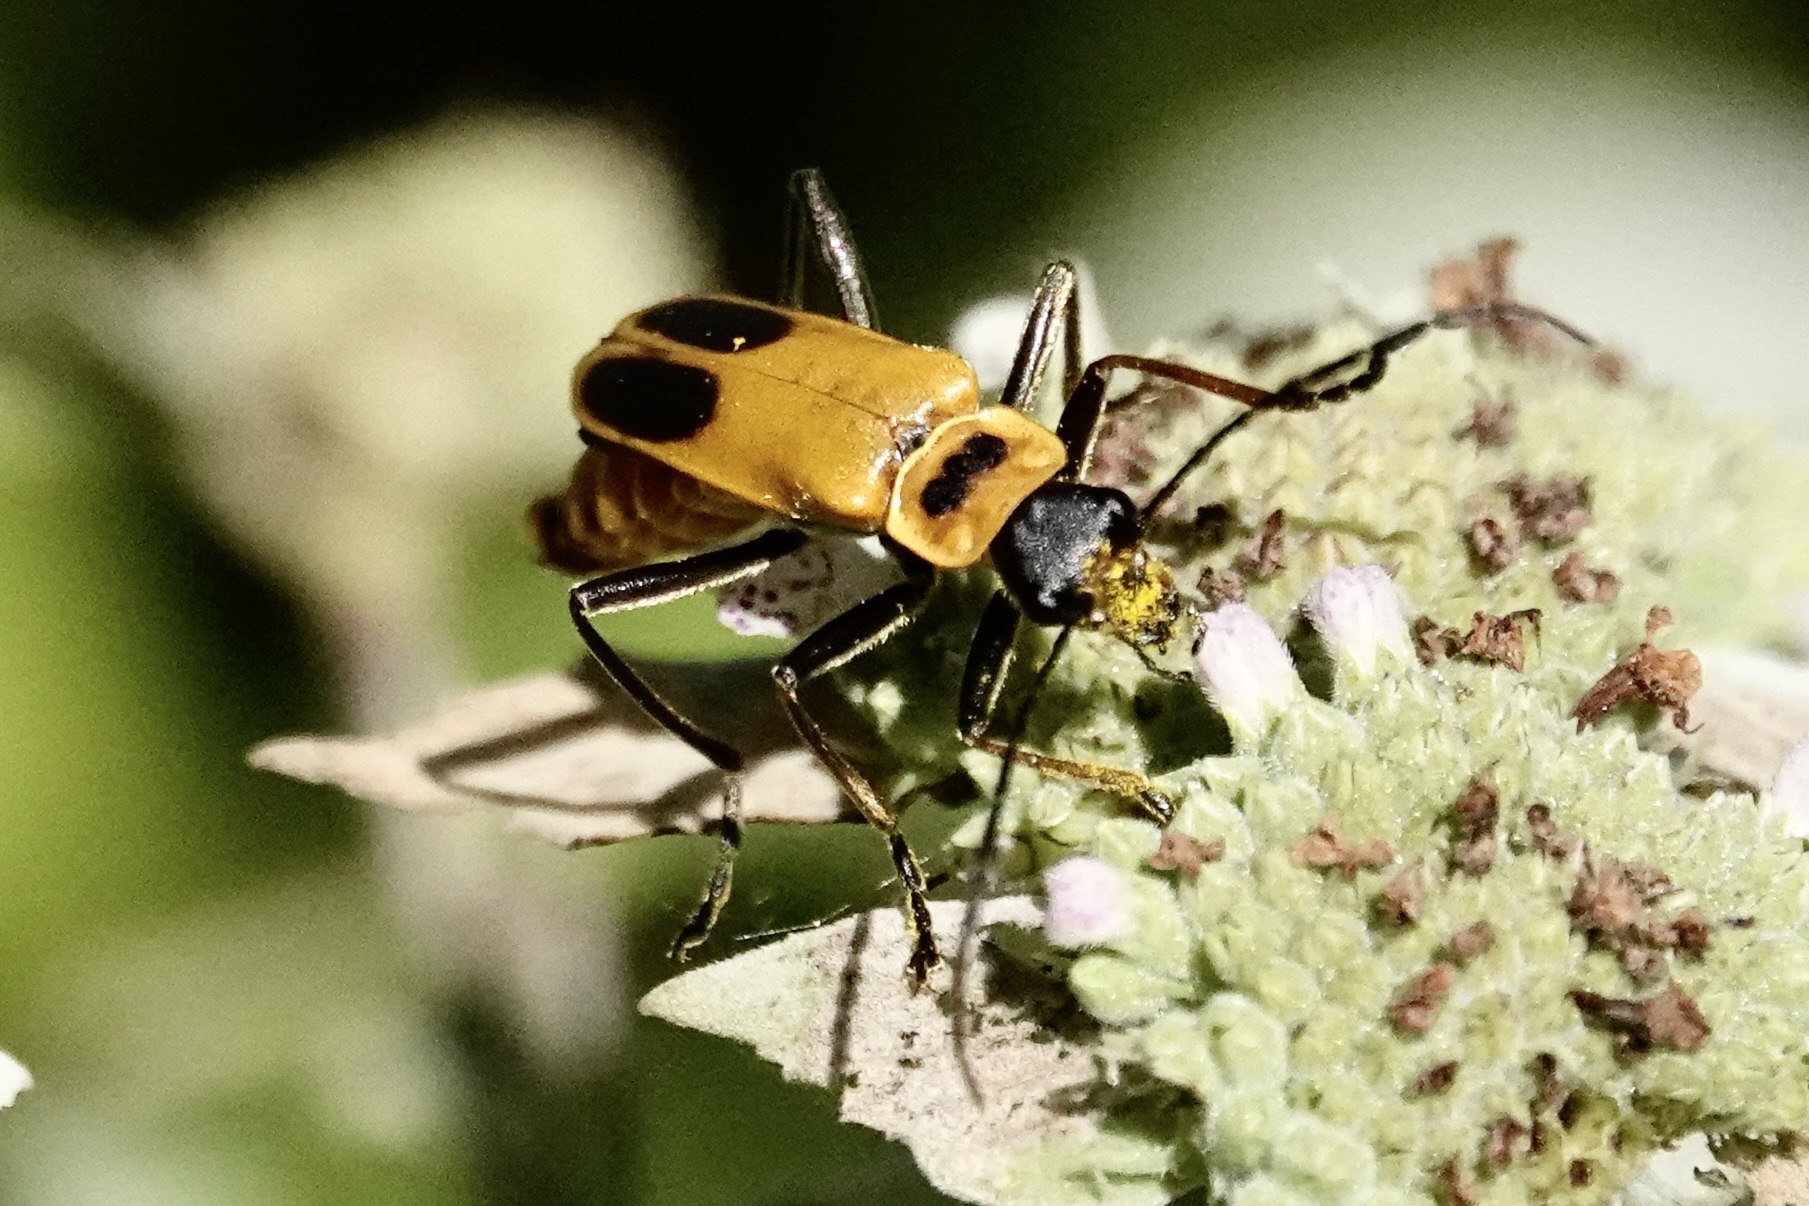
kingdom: Animalia
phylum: Arthropoda
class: Insecta
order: Coleoptera
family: Cantharidae
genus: Chauliognathus
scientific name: Chauliognathus pensylvanicus
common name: Goldenrod soldier beetle
